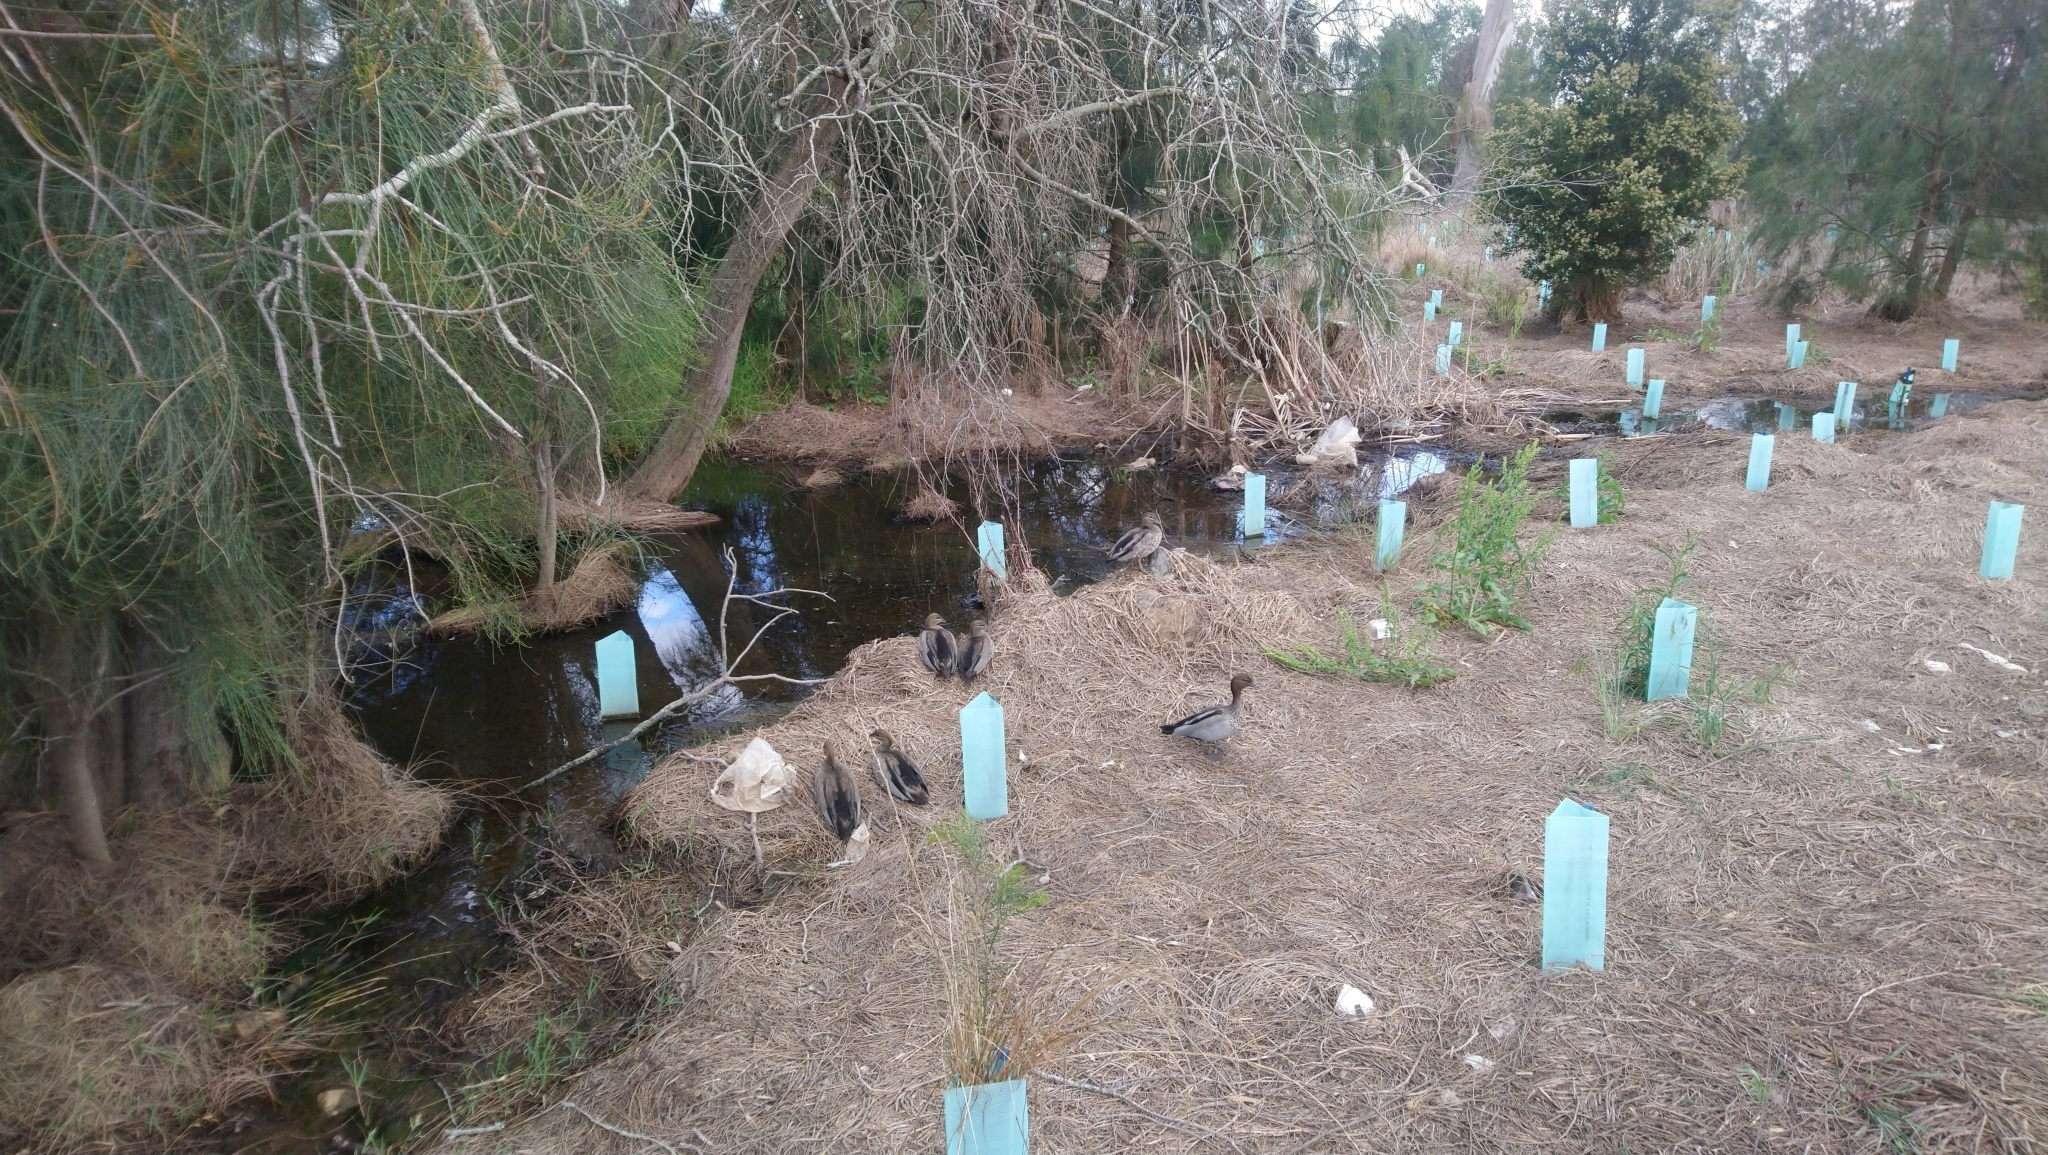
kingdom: Animalia
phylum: Chordata
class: Aves
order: Anseriformes
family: Anatidae
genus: Chenonetta
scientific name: Chenonetta jubata
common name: Maned duck
